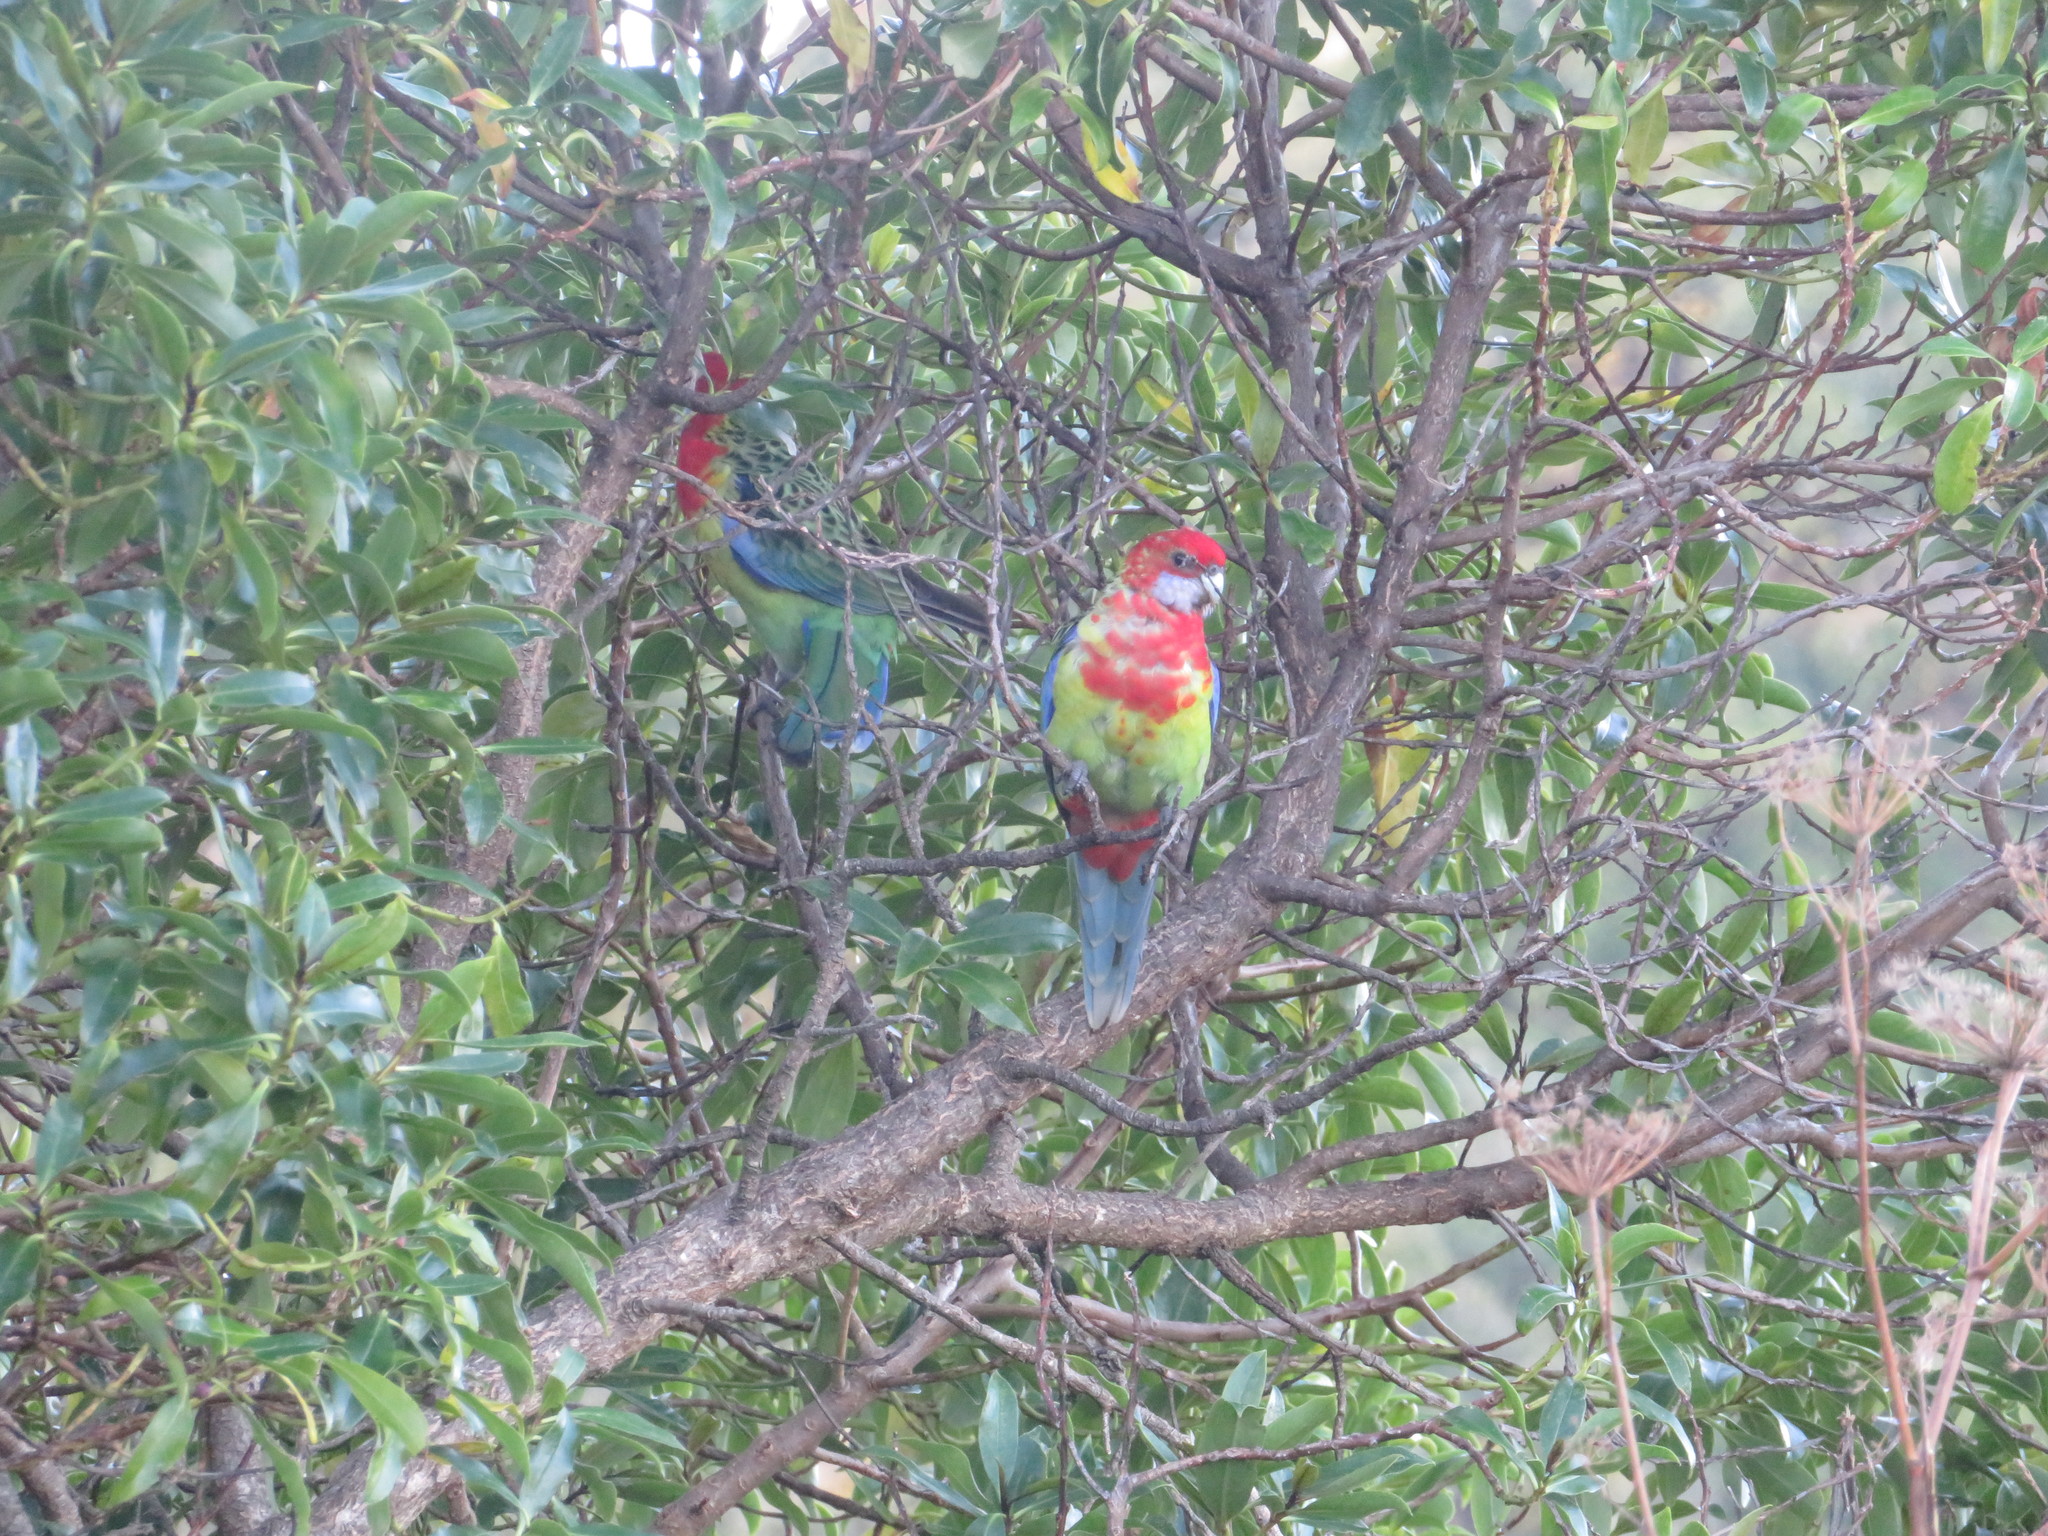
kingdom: Animalia
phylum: Chordata
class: Aves
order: Psittaciformes
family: Psittacidae
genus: Platycercus
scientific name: Platycercus eximius
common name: Eastern rosella
